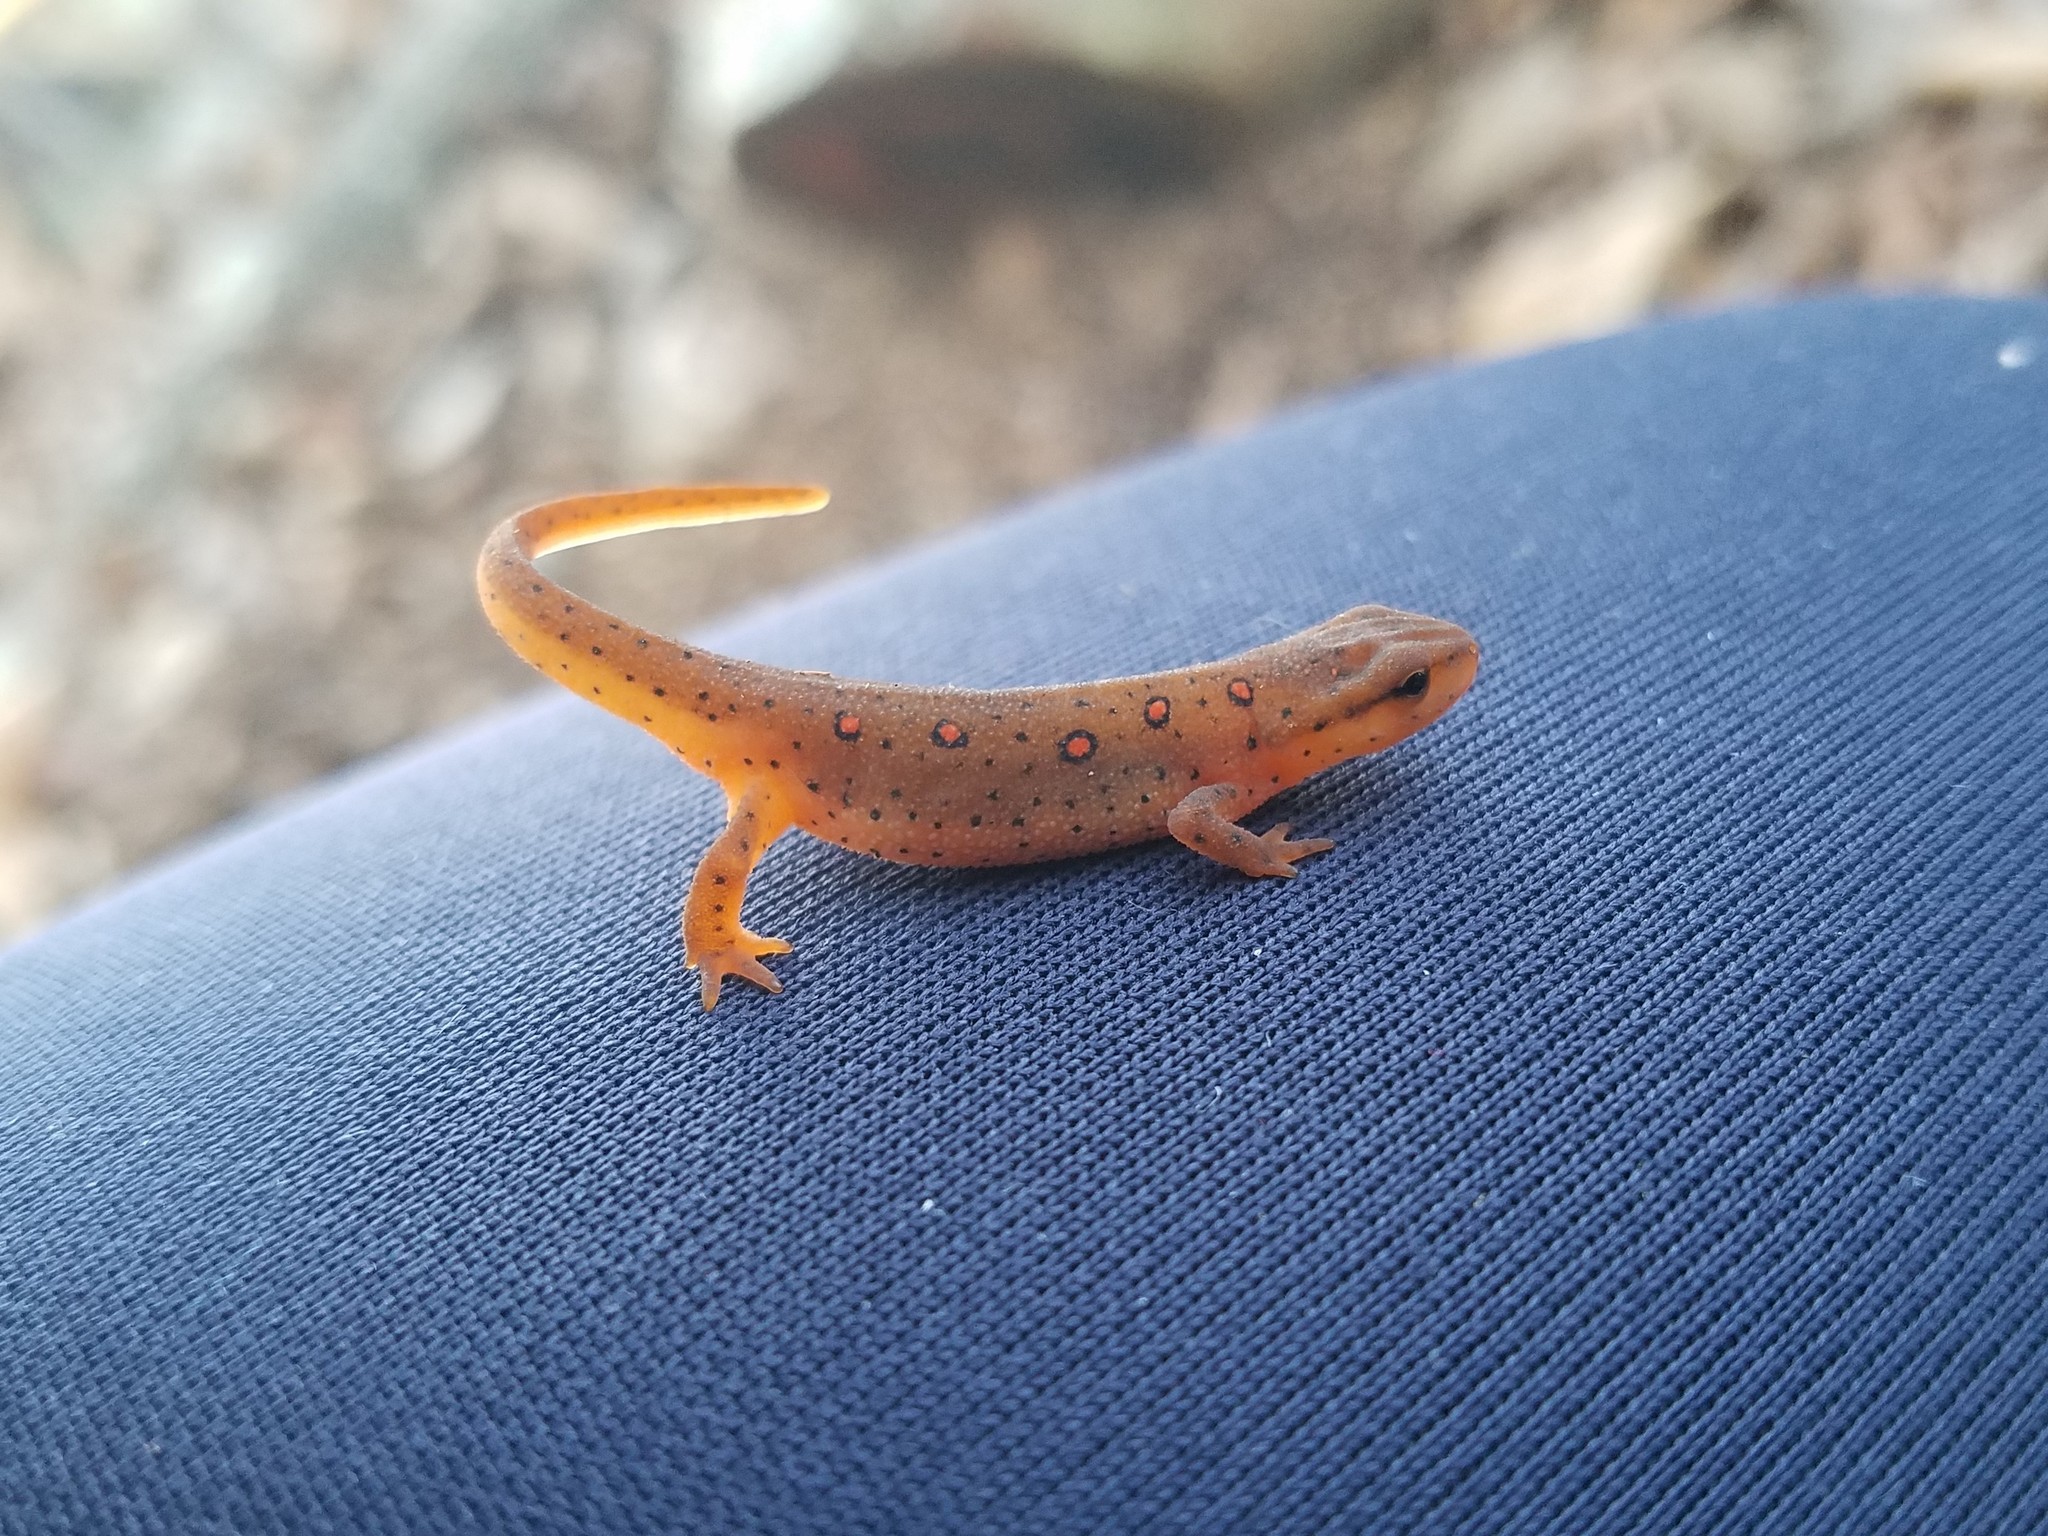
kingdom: Animalia
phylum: Chordata
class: Amphibia
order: Caudata
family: Salamandridae
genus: Notophthalmus
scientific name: Notophthalmus viridescens
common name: Eastern newt
